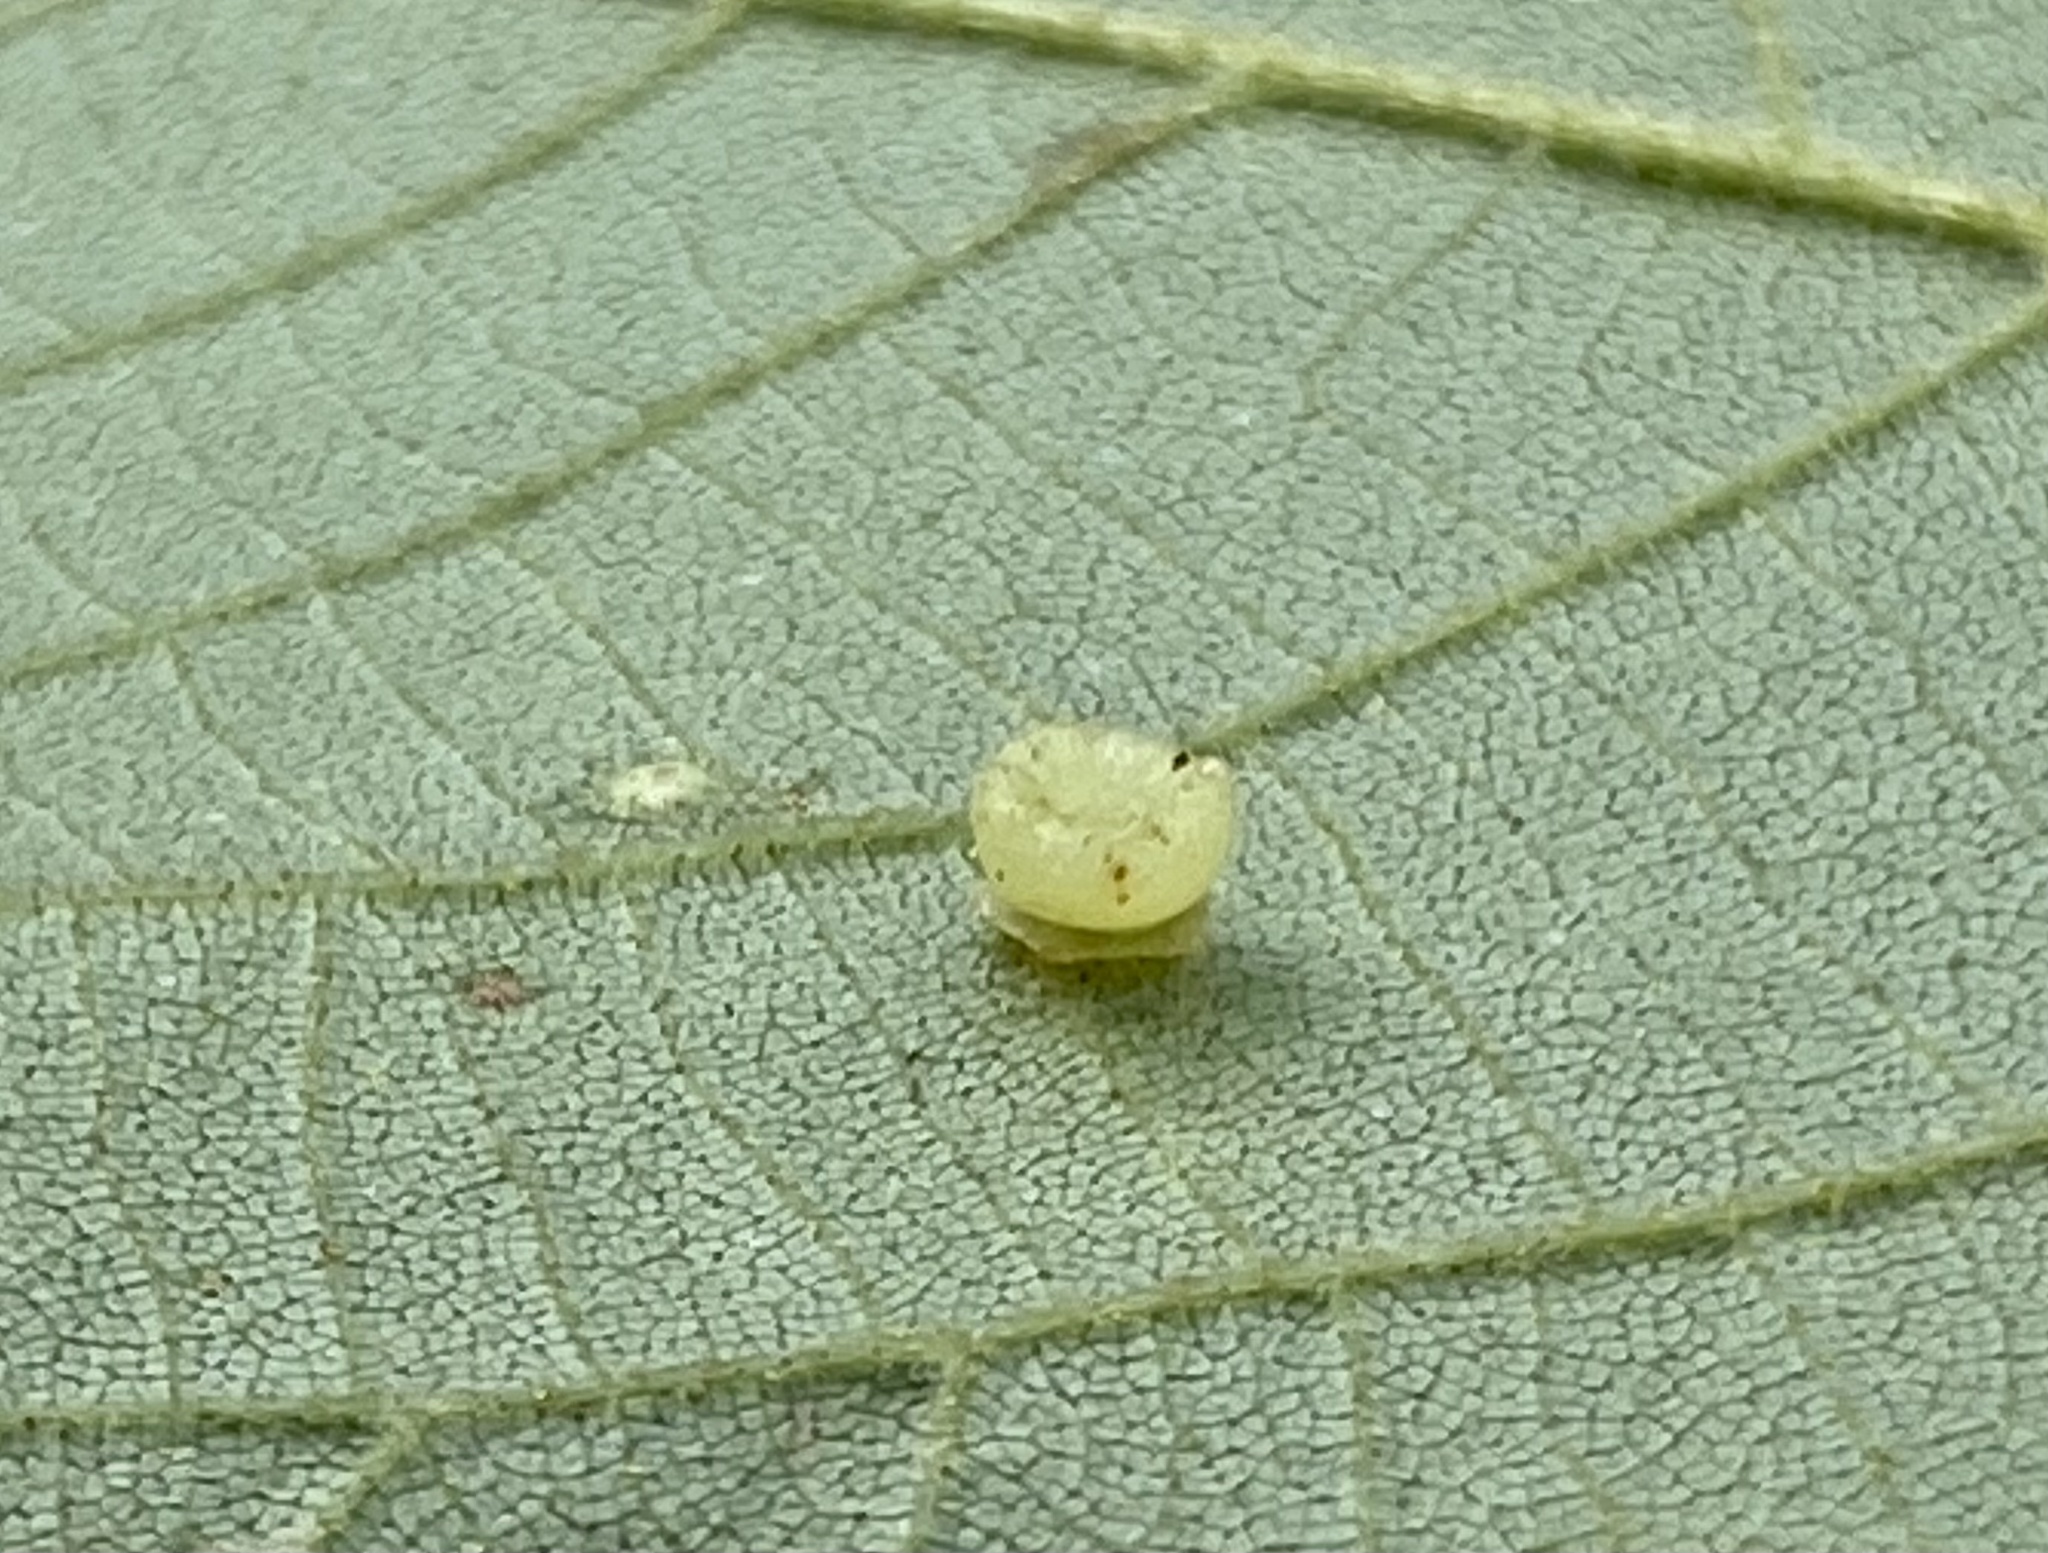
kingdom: Animalia
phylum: Arthropoda
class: Insecta
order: Diptera
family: Cecidomyiidae
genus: Caryomyia
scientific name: Caryomyia melicrustum
